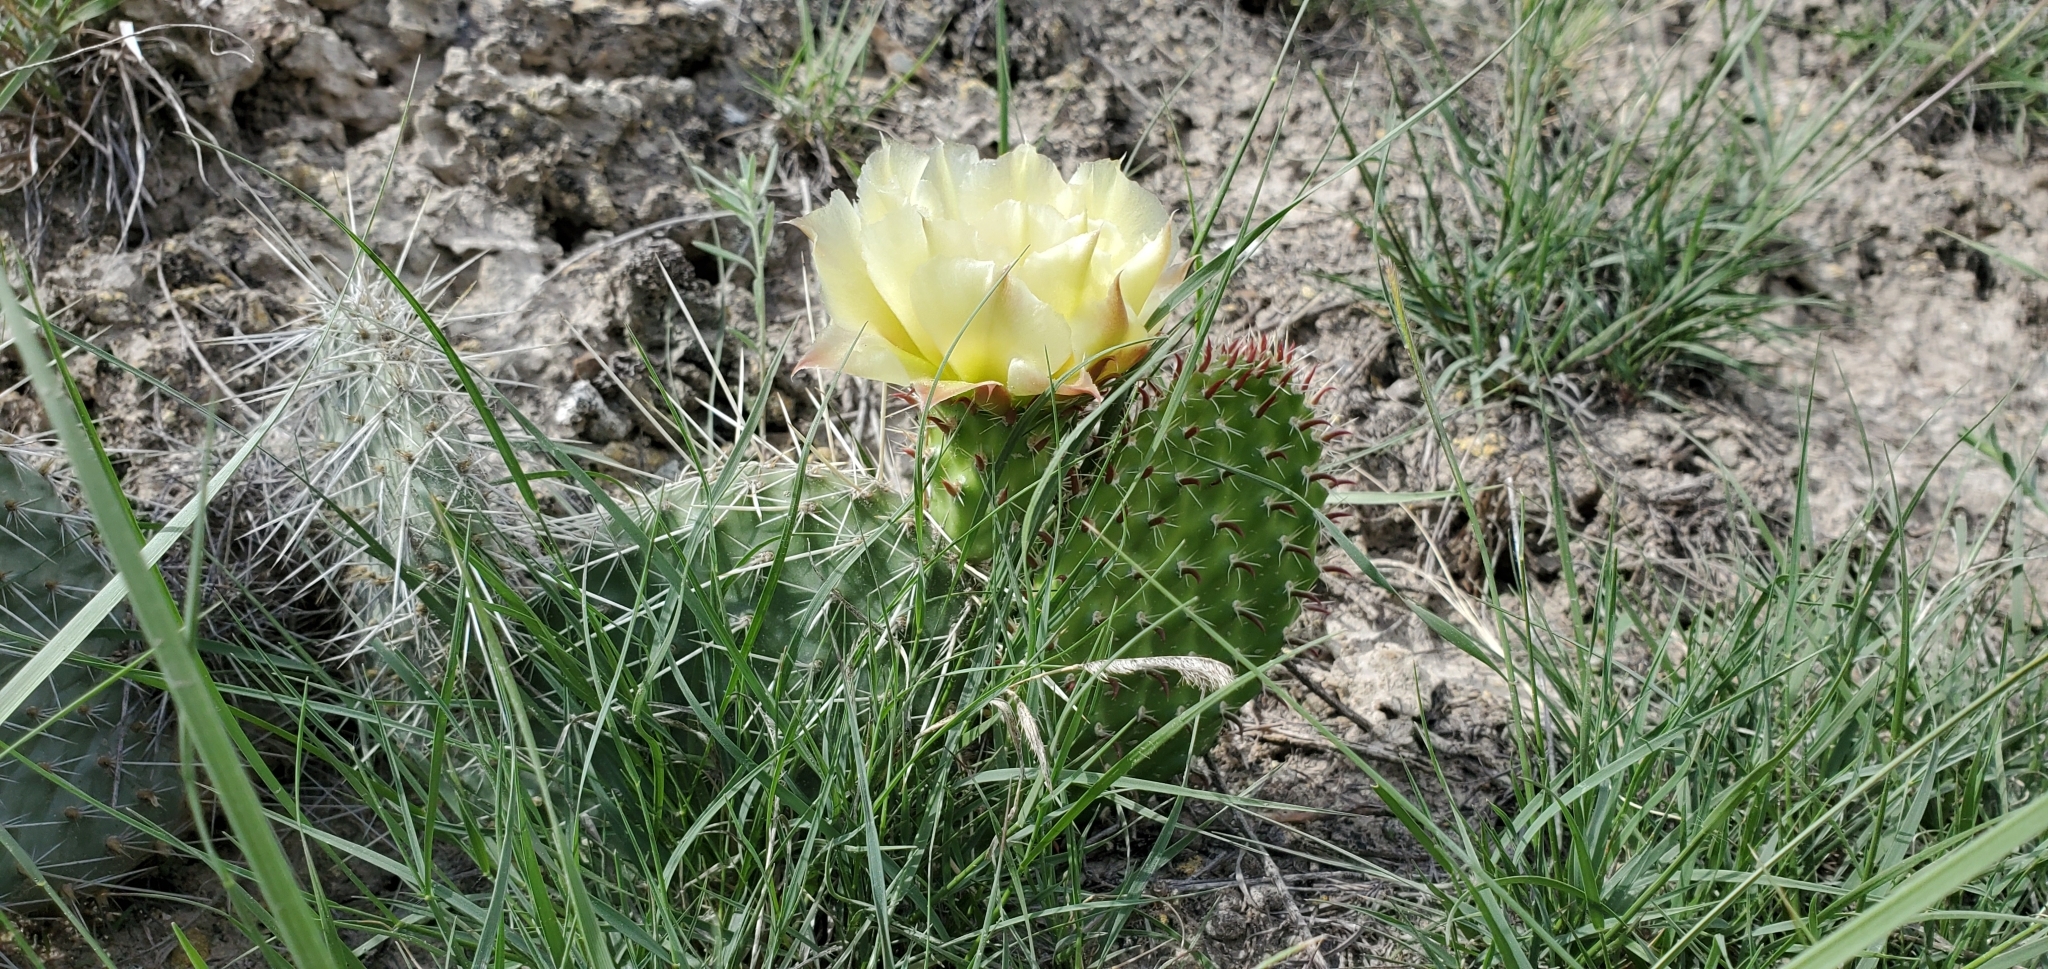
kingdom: Plantae
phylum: Tracheophyta
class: Magnoliopsida
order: Caryophyllales
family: Cactaceae
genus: Opuntia
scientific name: Opuntia polyacantha
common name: Plains prickly-pear
